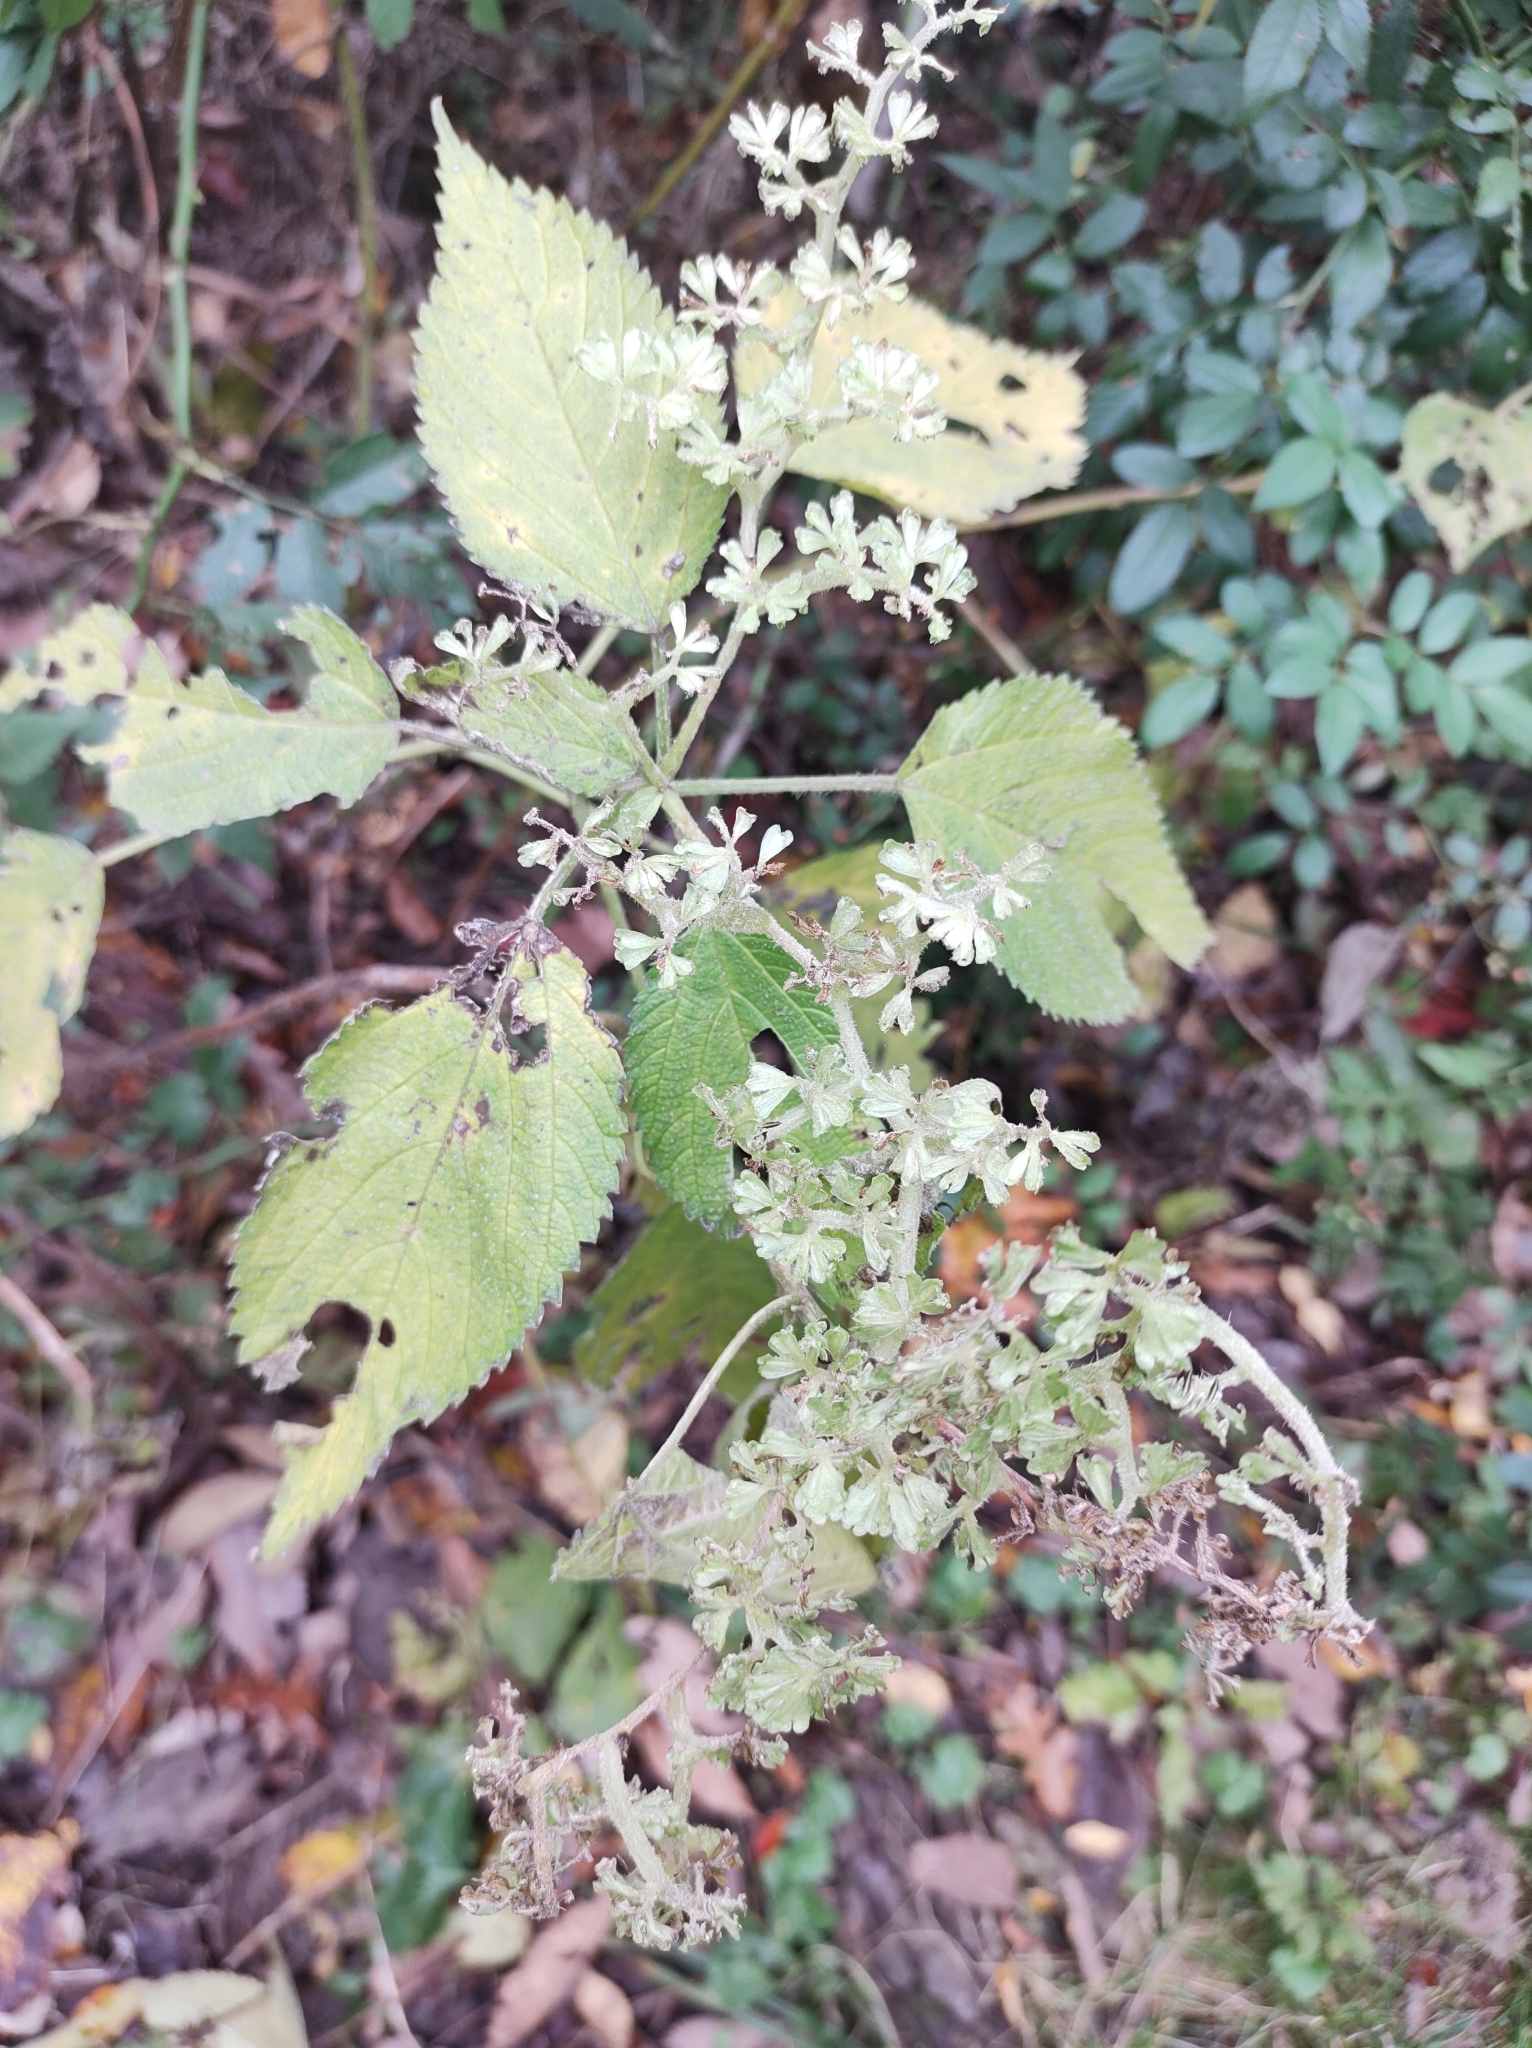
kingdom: Plantae
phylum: Tracheophyta
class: Magnoliopsida
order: Rosales
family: Urticaceae
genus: Laportea
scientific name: Laportea canadensis
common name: Canada nettle
